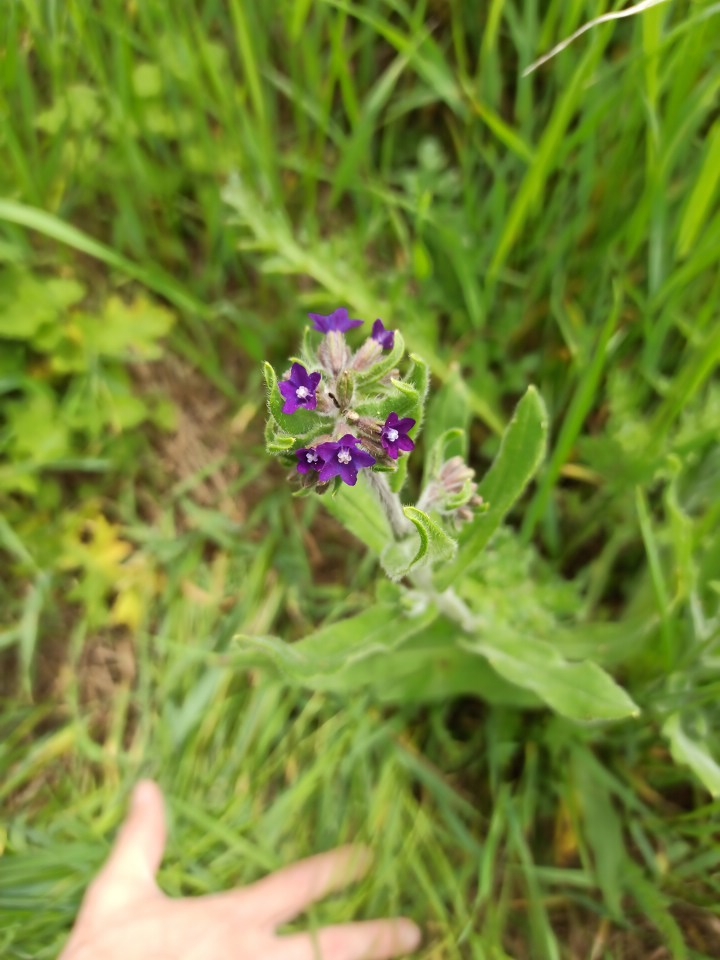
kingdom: Plantae
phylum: Tracheophyta
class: Magnoliopsida
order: Boraginales
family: Boraginaceae
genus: Anchusa
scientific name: Anchusa officinalis
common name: Alkanet
